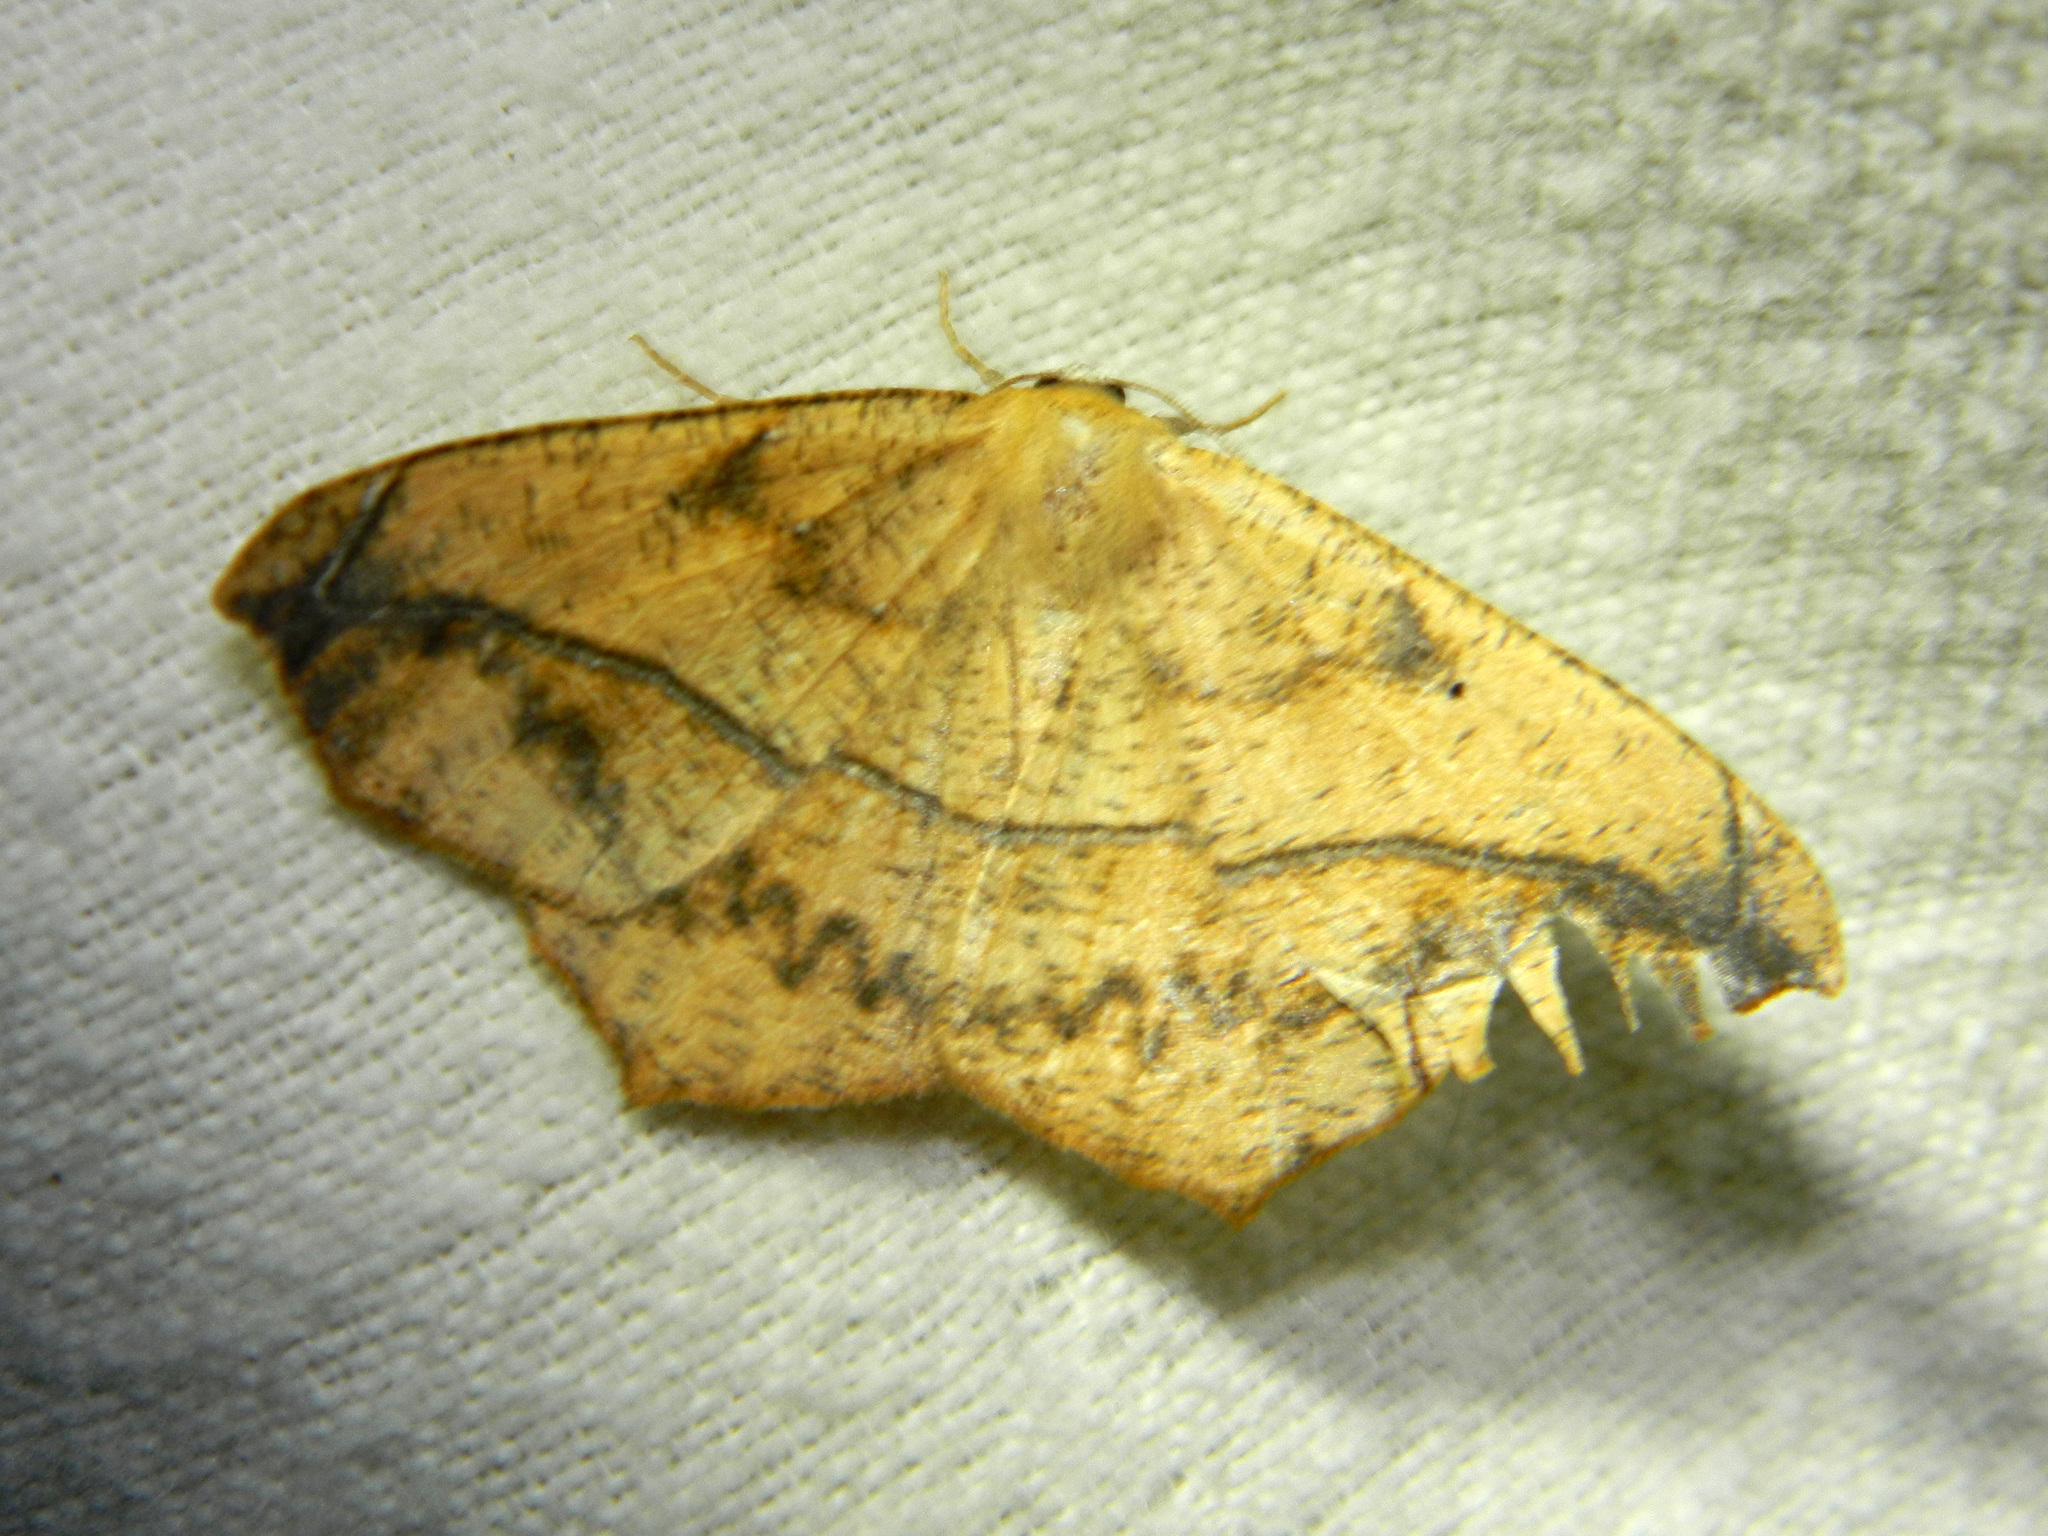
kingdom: Animalia
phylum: Arthropoda
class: Insecta
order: Lepidoptera
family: Geometridae
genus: Prochoerodes
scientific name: Prochoerodes lineola
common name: Large maple spanworm
